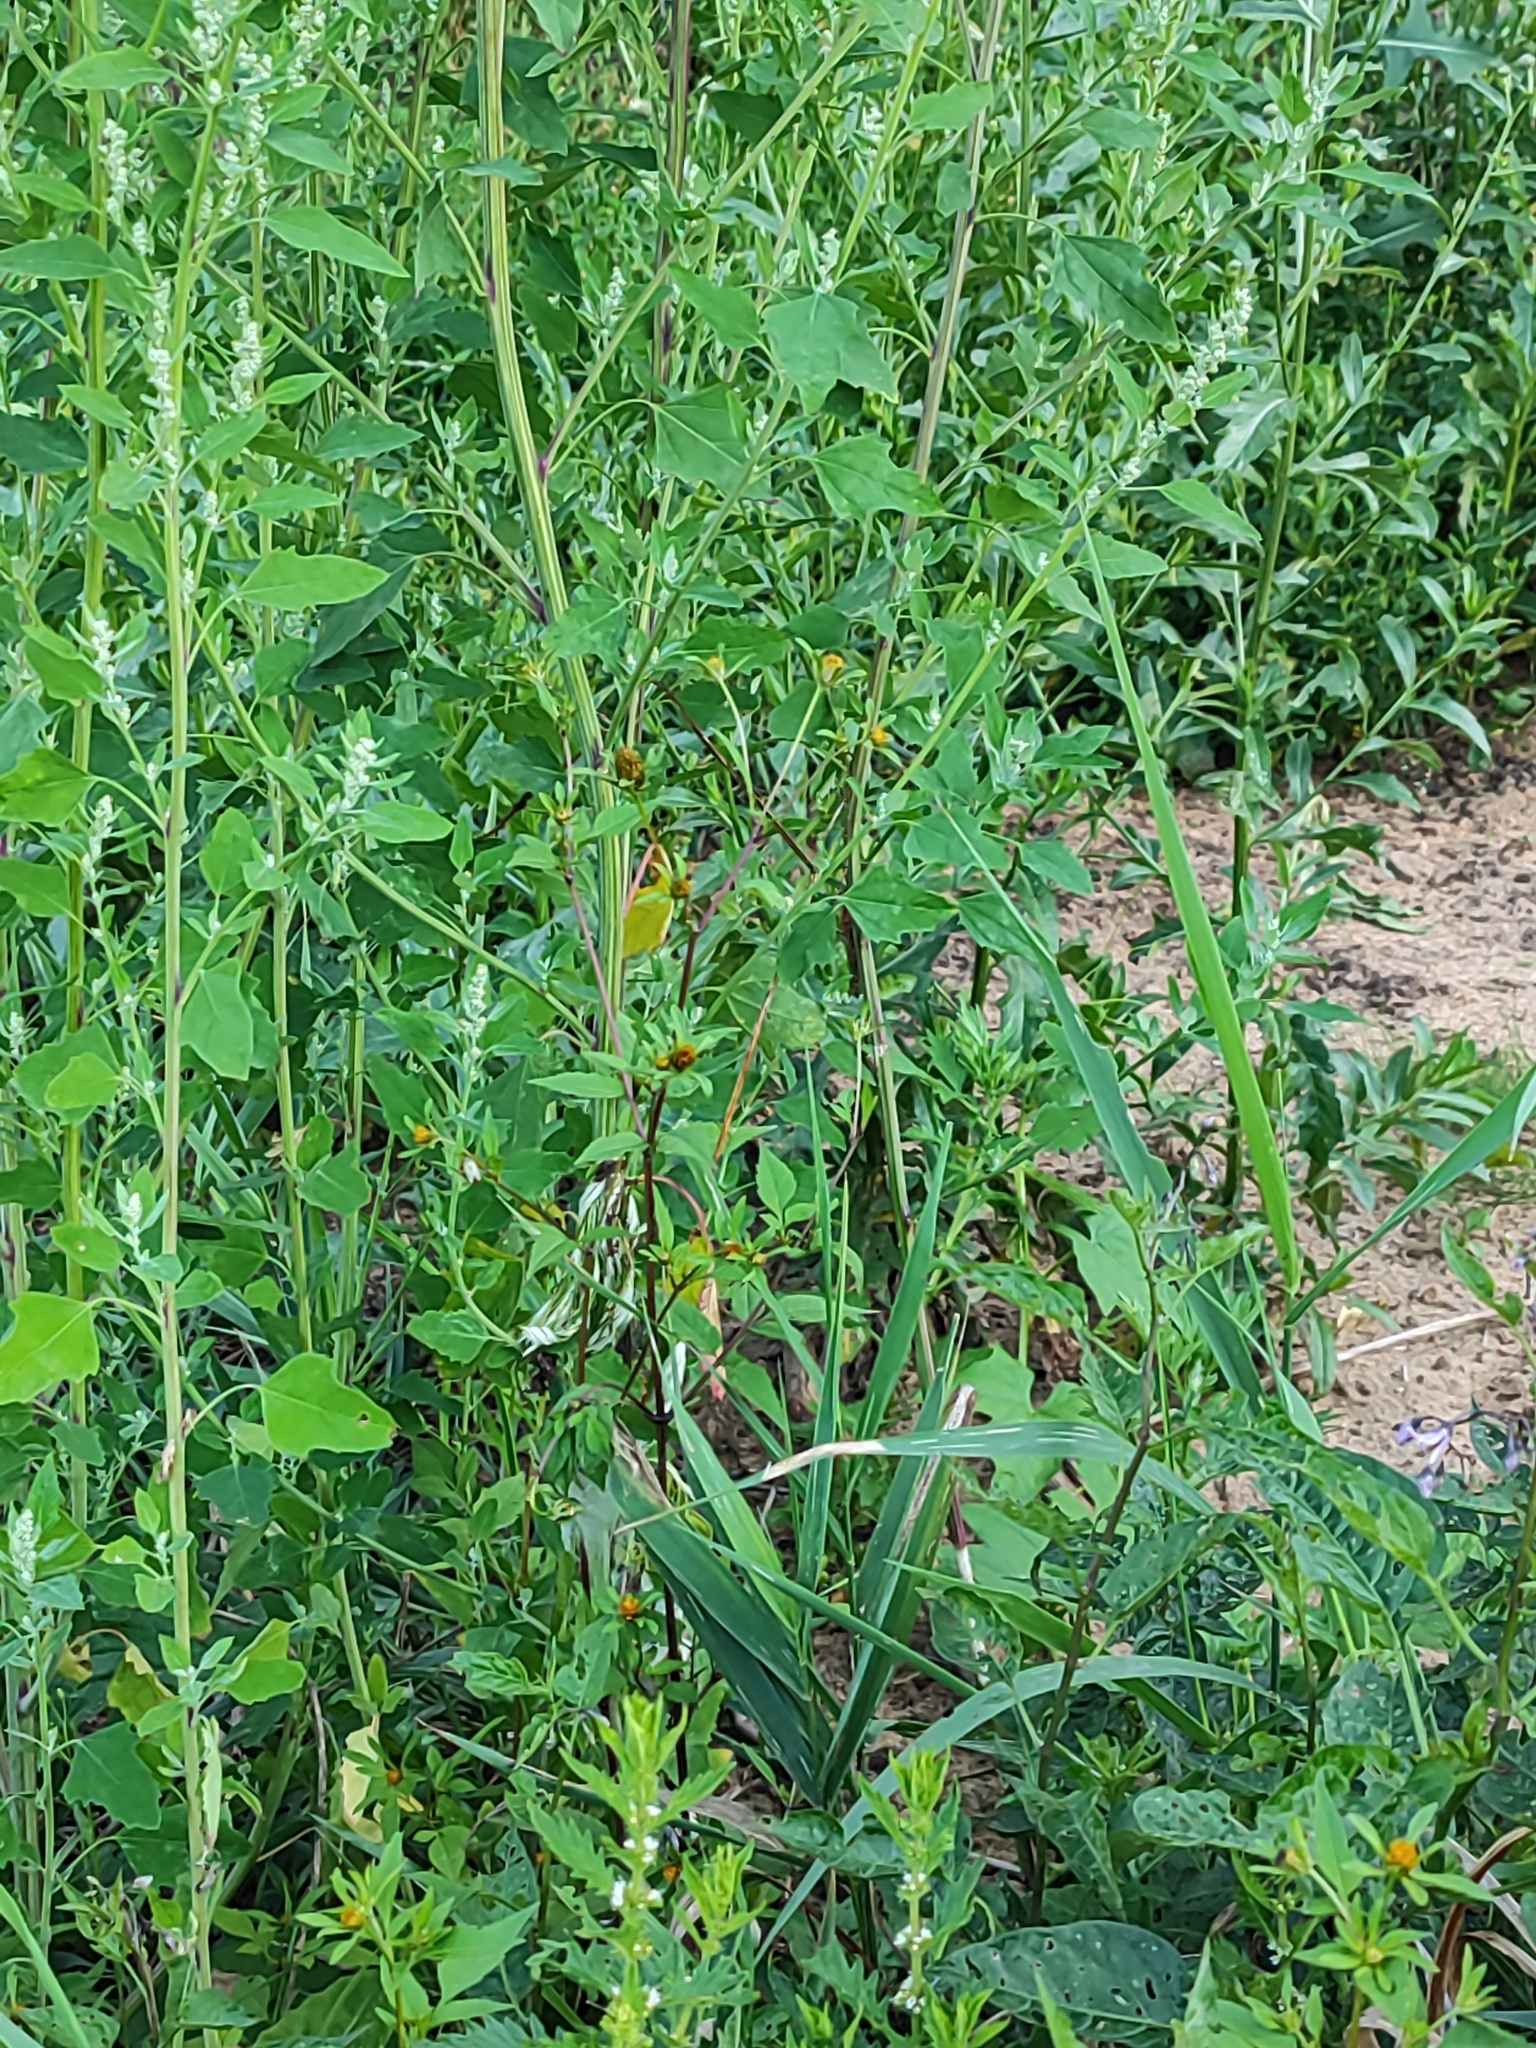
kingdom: Plantae
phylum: Tracheophyta
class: Magnoliopsida
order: Asterales
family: Asteraceae
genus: Bidens
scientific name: Bidens frondosa
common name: Beggarticks
